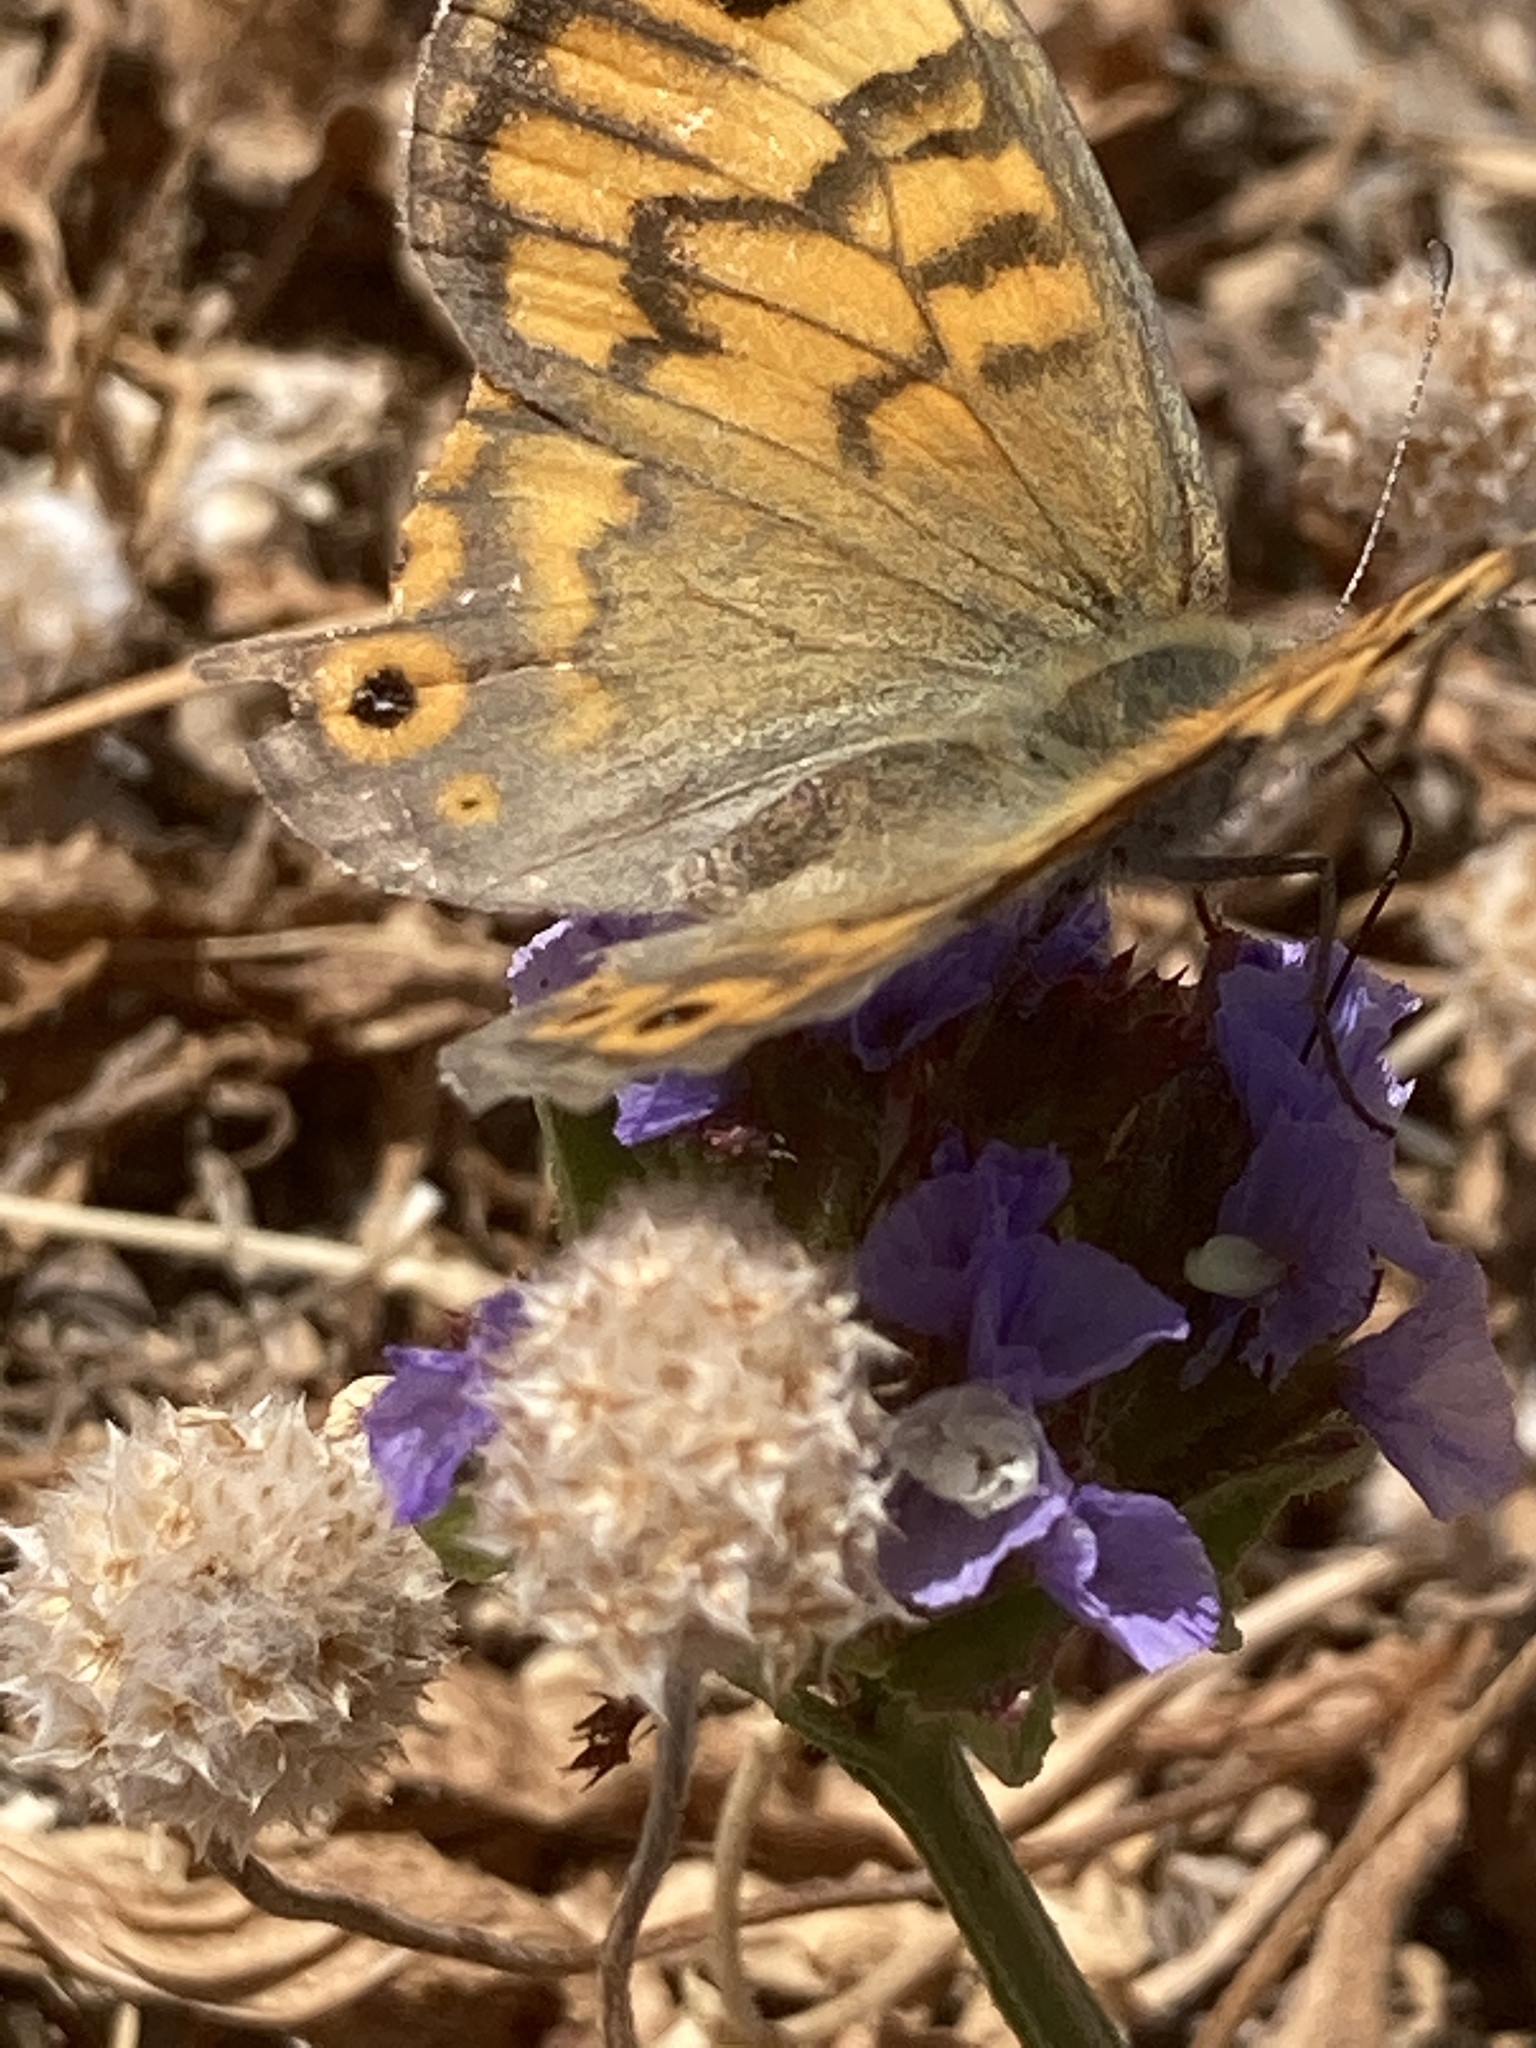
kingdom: Animalia
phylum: Arthropoda
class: Insecta
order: Lepidoptera
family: Nymphalidae
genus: Pararge
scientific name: Pararge Lasiommata megera
